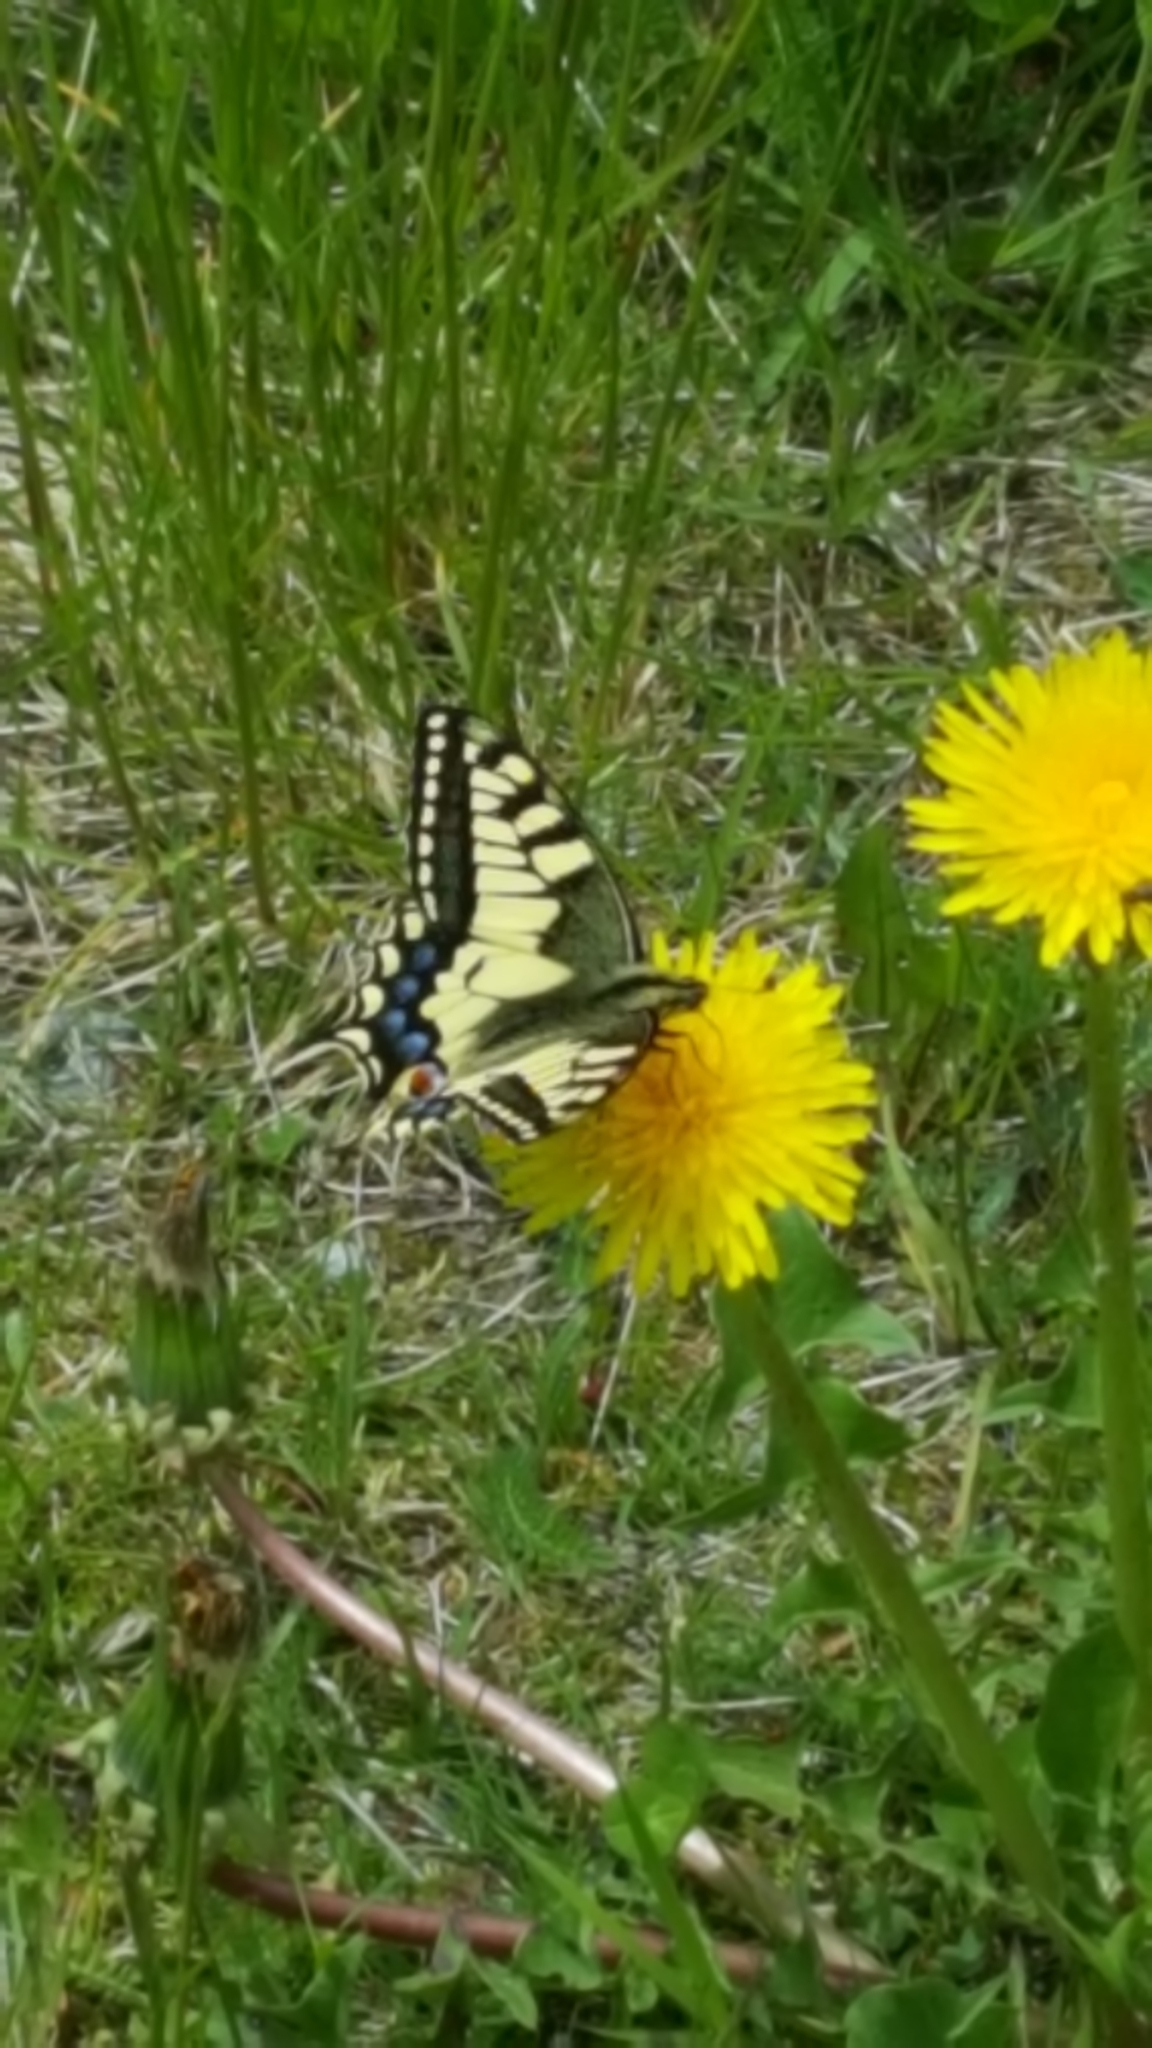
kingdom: Animalia
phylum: Arthropoda
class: Insecta
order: Lepidoptera
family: Papilionidae
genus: Papilio
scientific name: Papilio machaon
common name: Swallowtail
